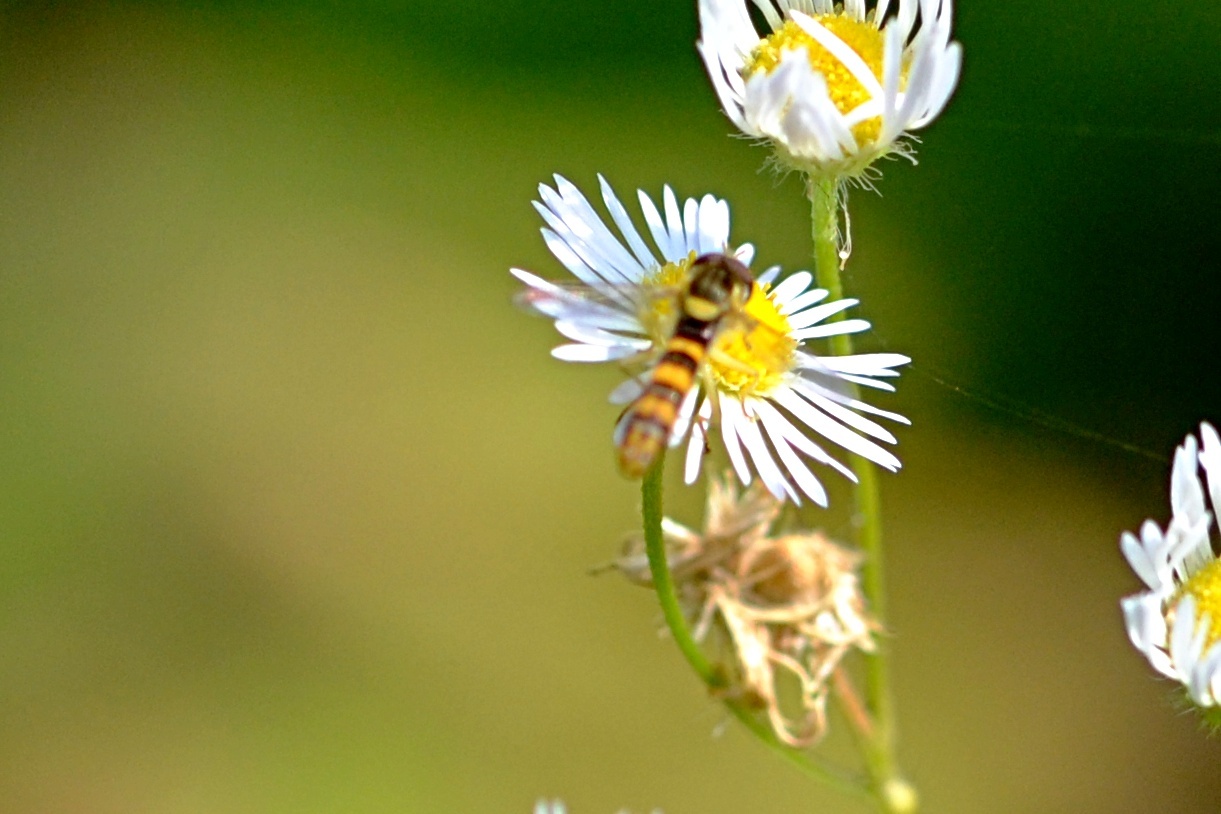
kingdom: Animalia
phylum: Arthropoda
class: Insecta
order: Diptera
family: Syrphidae
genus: Sphaerophoria
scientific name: Sphaerophoria
